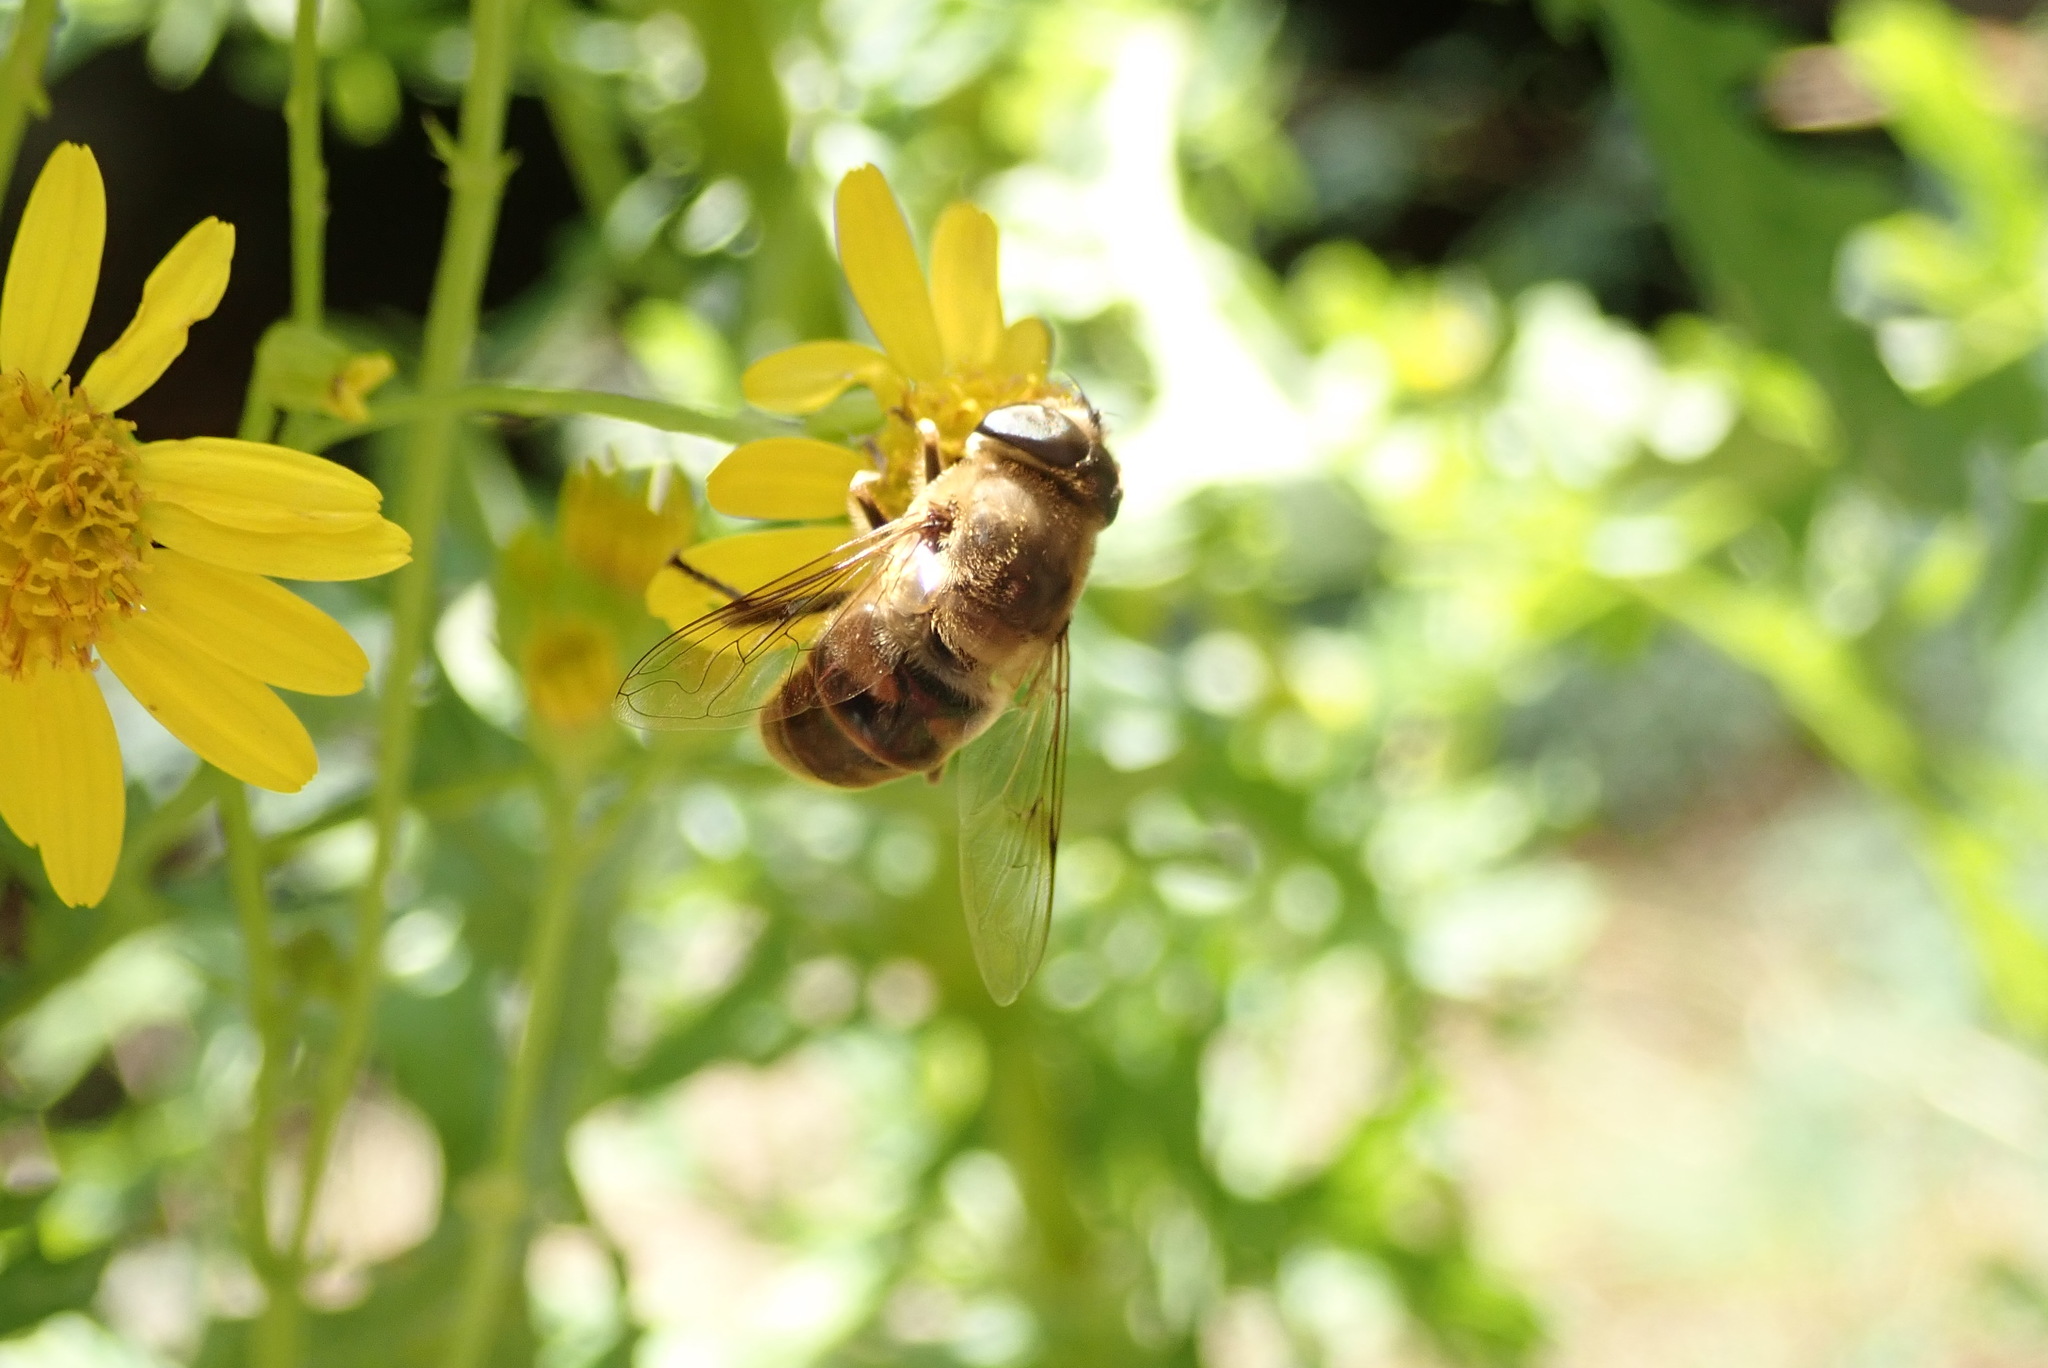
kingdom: Animalia
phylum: Arthropoda
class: Insecta
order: Diptera
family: Syrphidae
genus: Eristalis
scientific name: Eristalis tenax
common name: Drone fly
